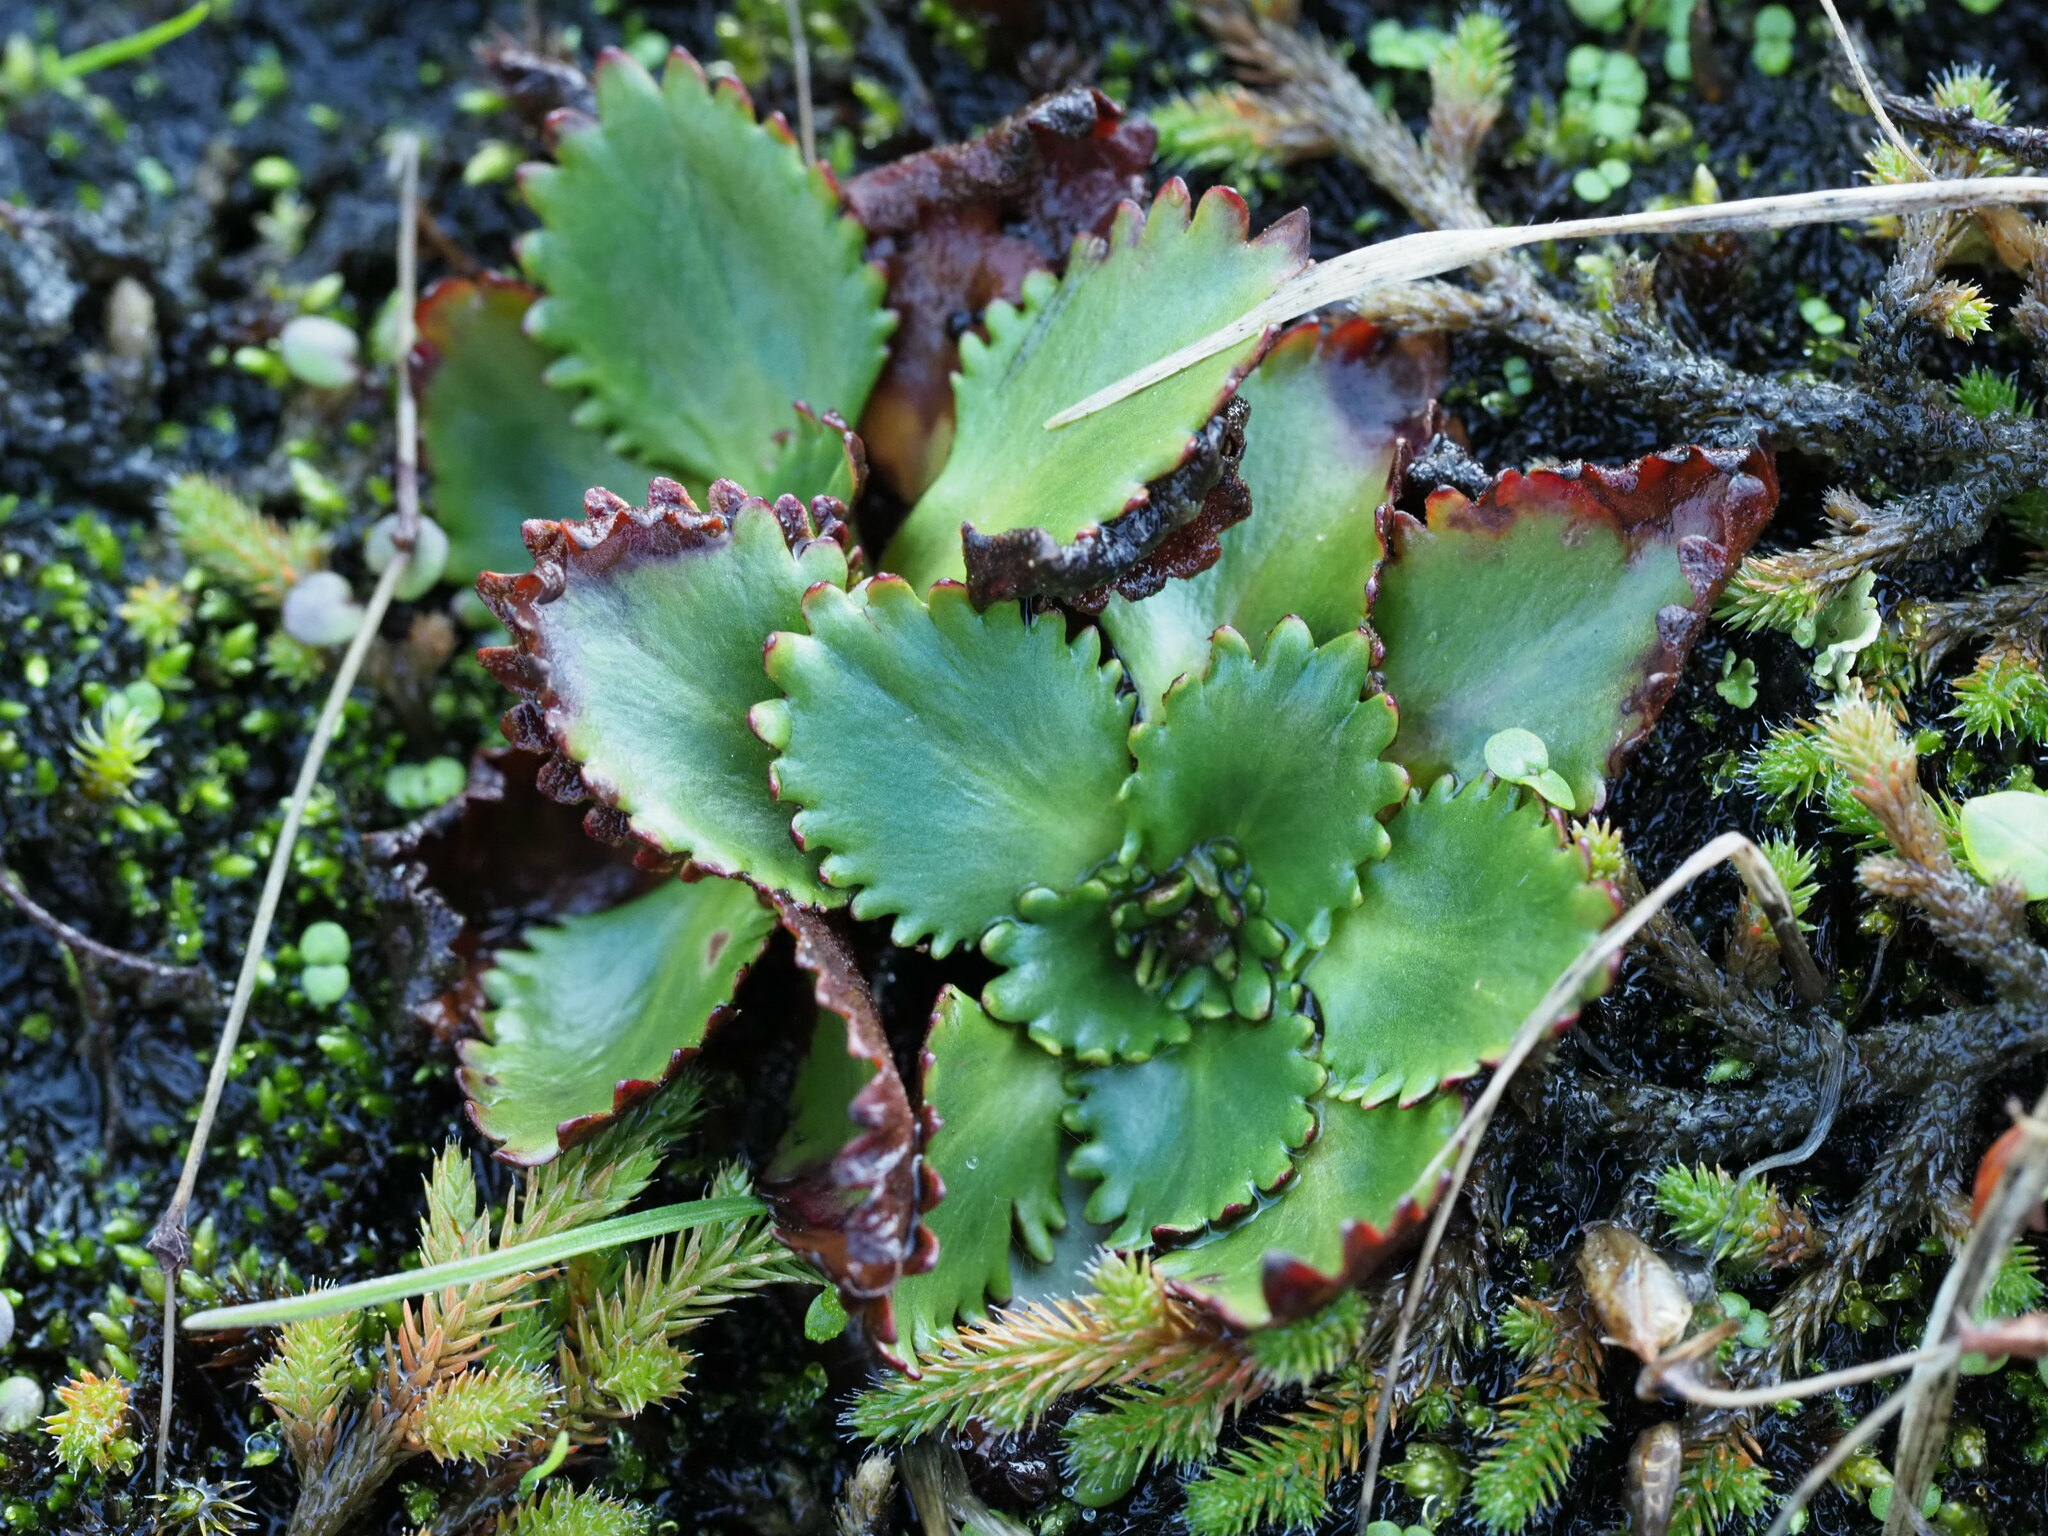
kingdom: Plantae
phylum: Tracheophyta
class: Magnoliopsida
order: Saxifragales
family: Saxifragaceae
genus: Micranthes
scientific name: Micranthes rufidula
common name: Rustyhair saxifrage
